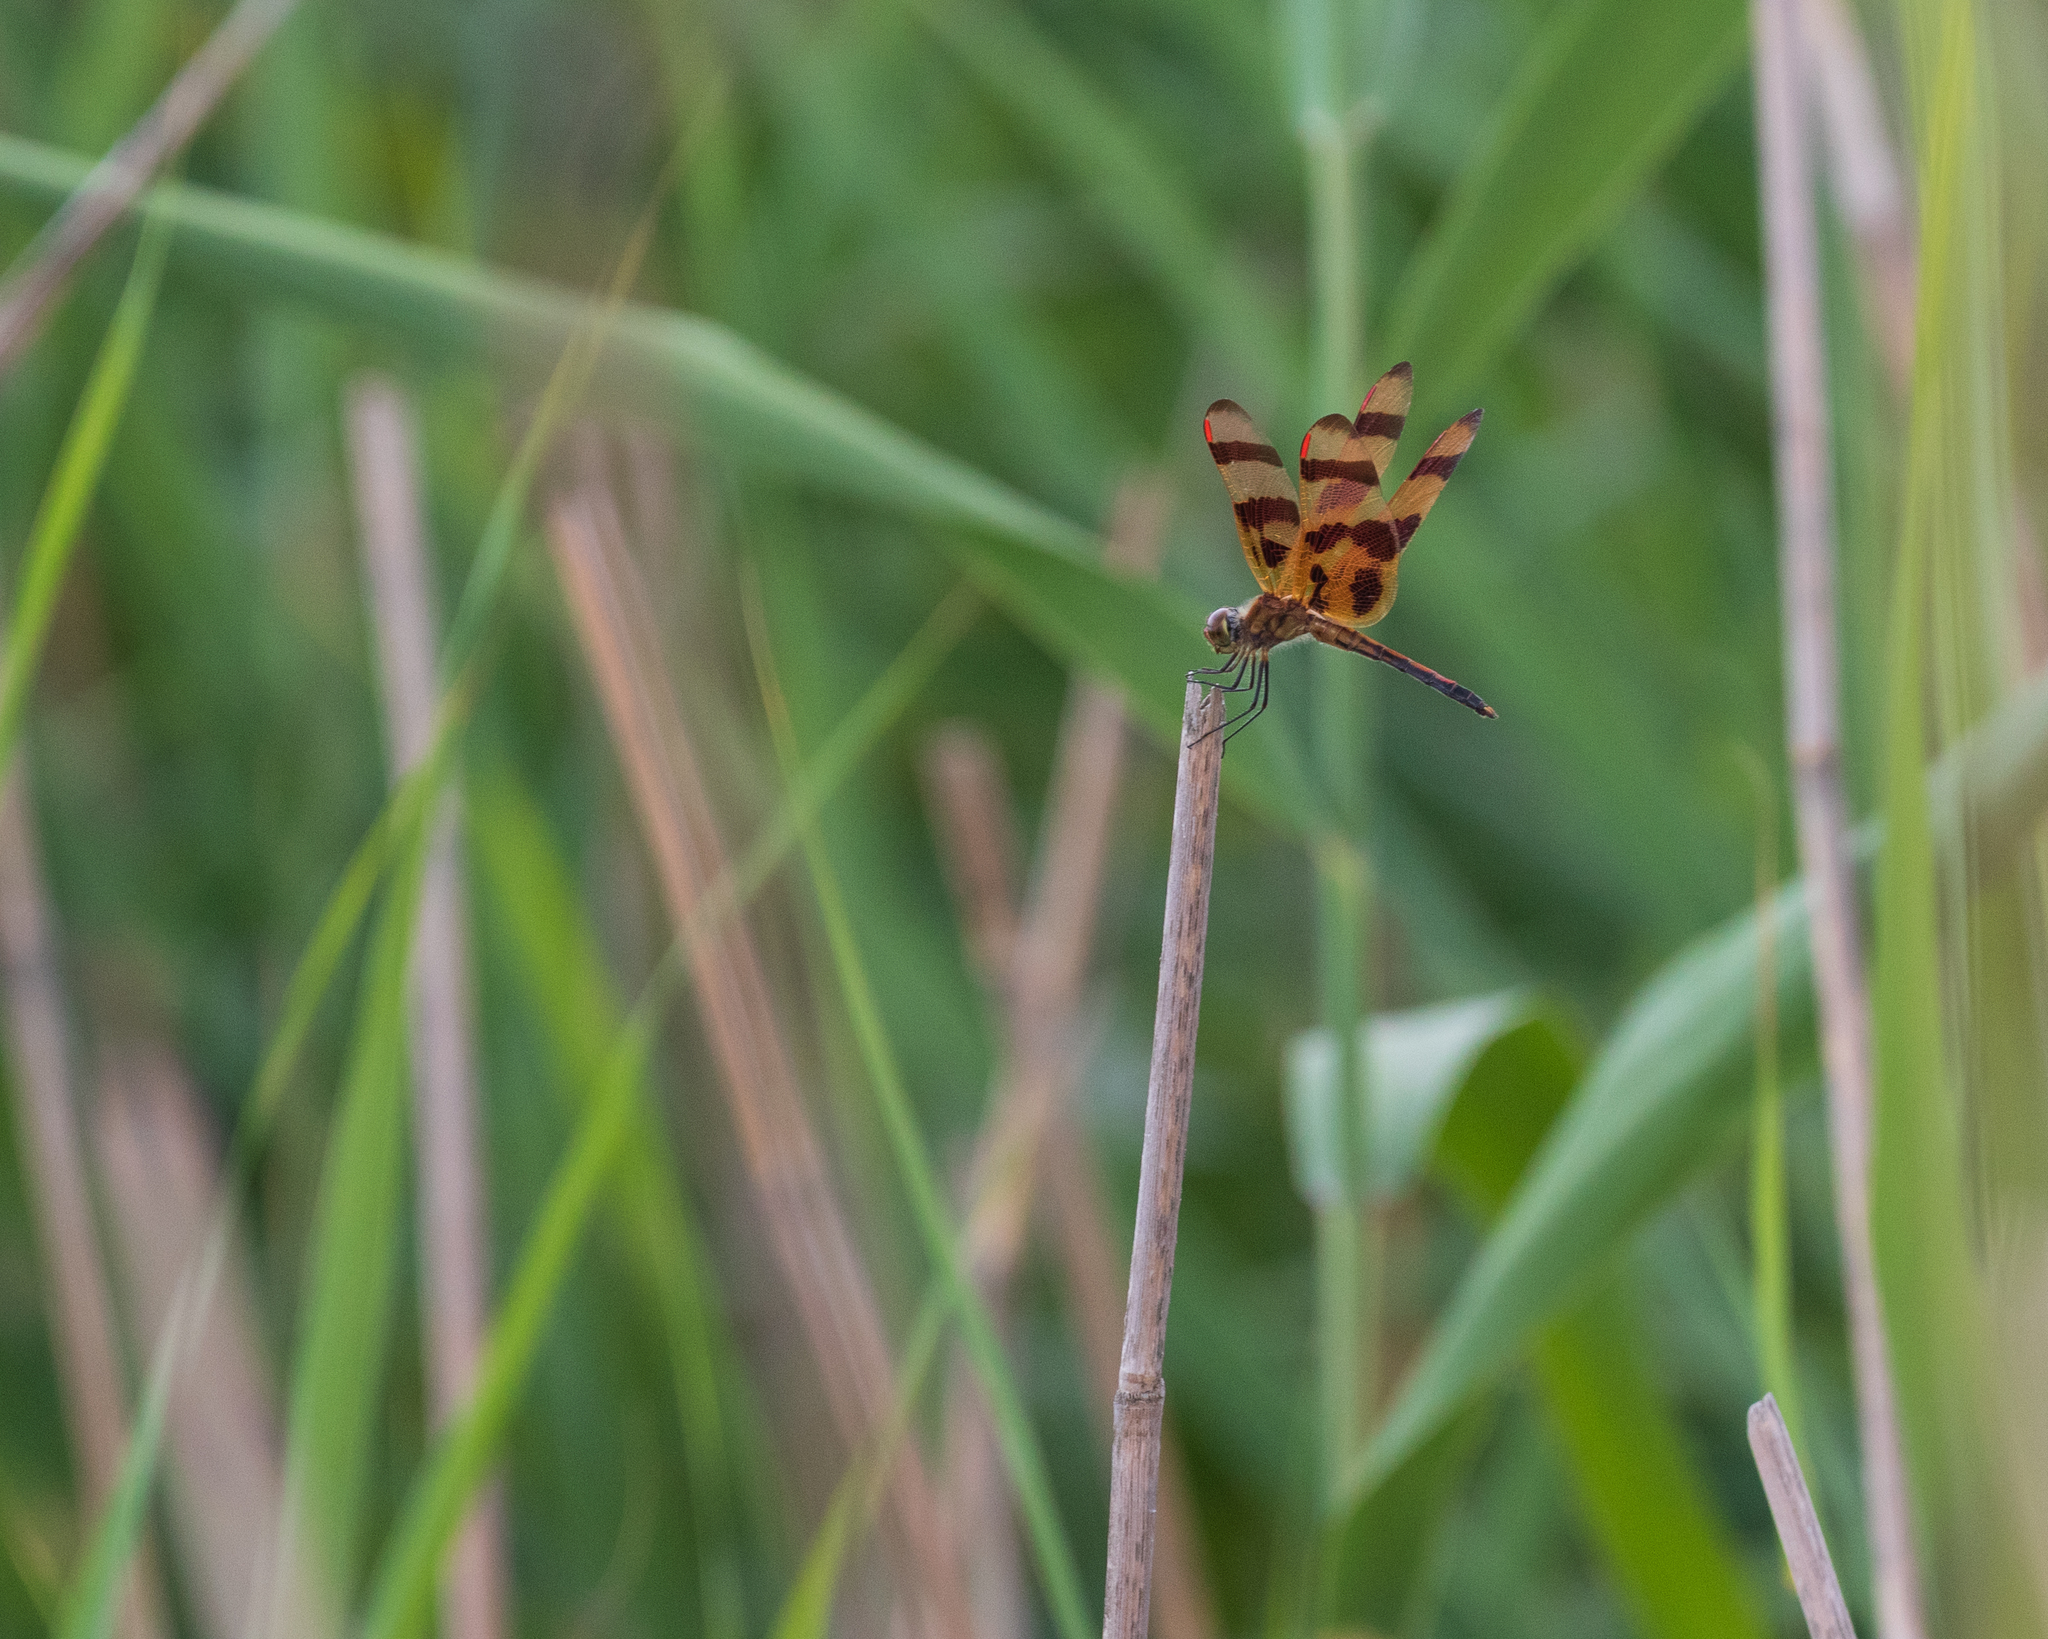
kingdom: Animalia
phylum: Arthropoda
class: Insecta
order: Odonata
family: Libellulidae
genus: Celithemis
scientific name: Celithemis eponina
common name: Halloween pennant
